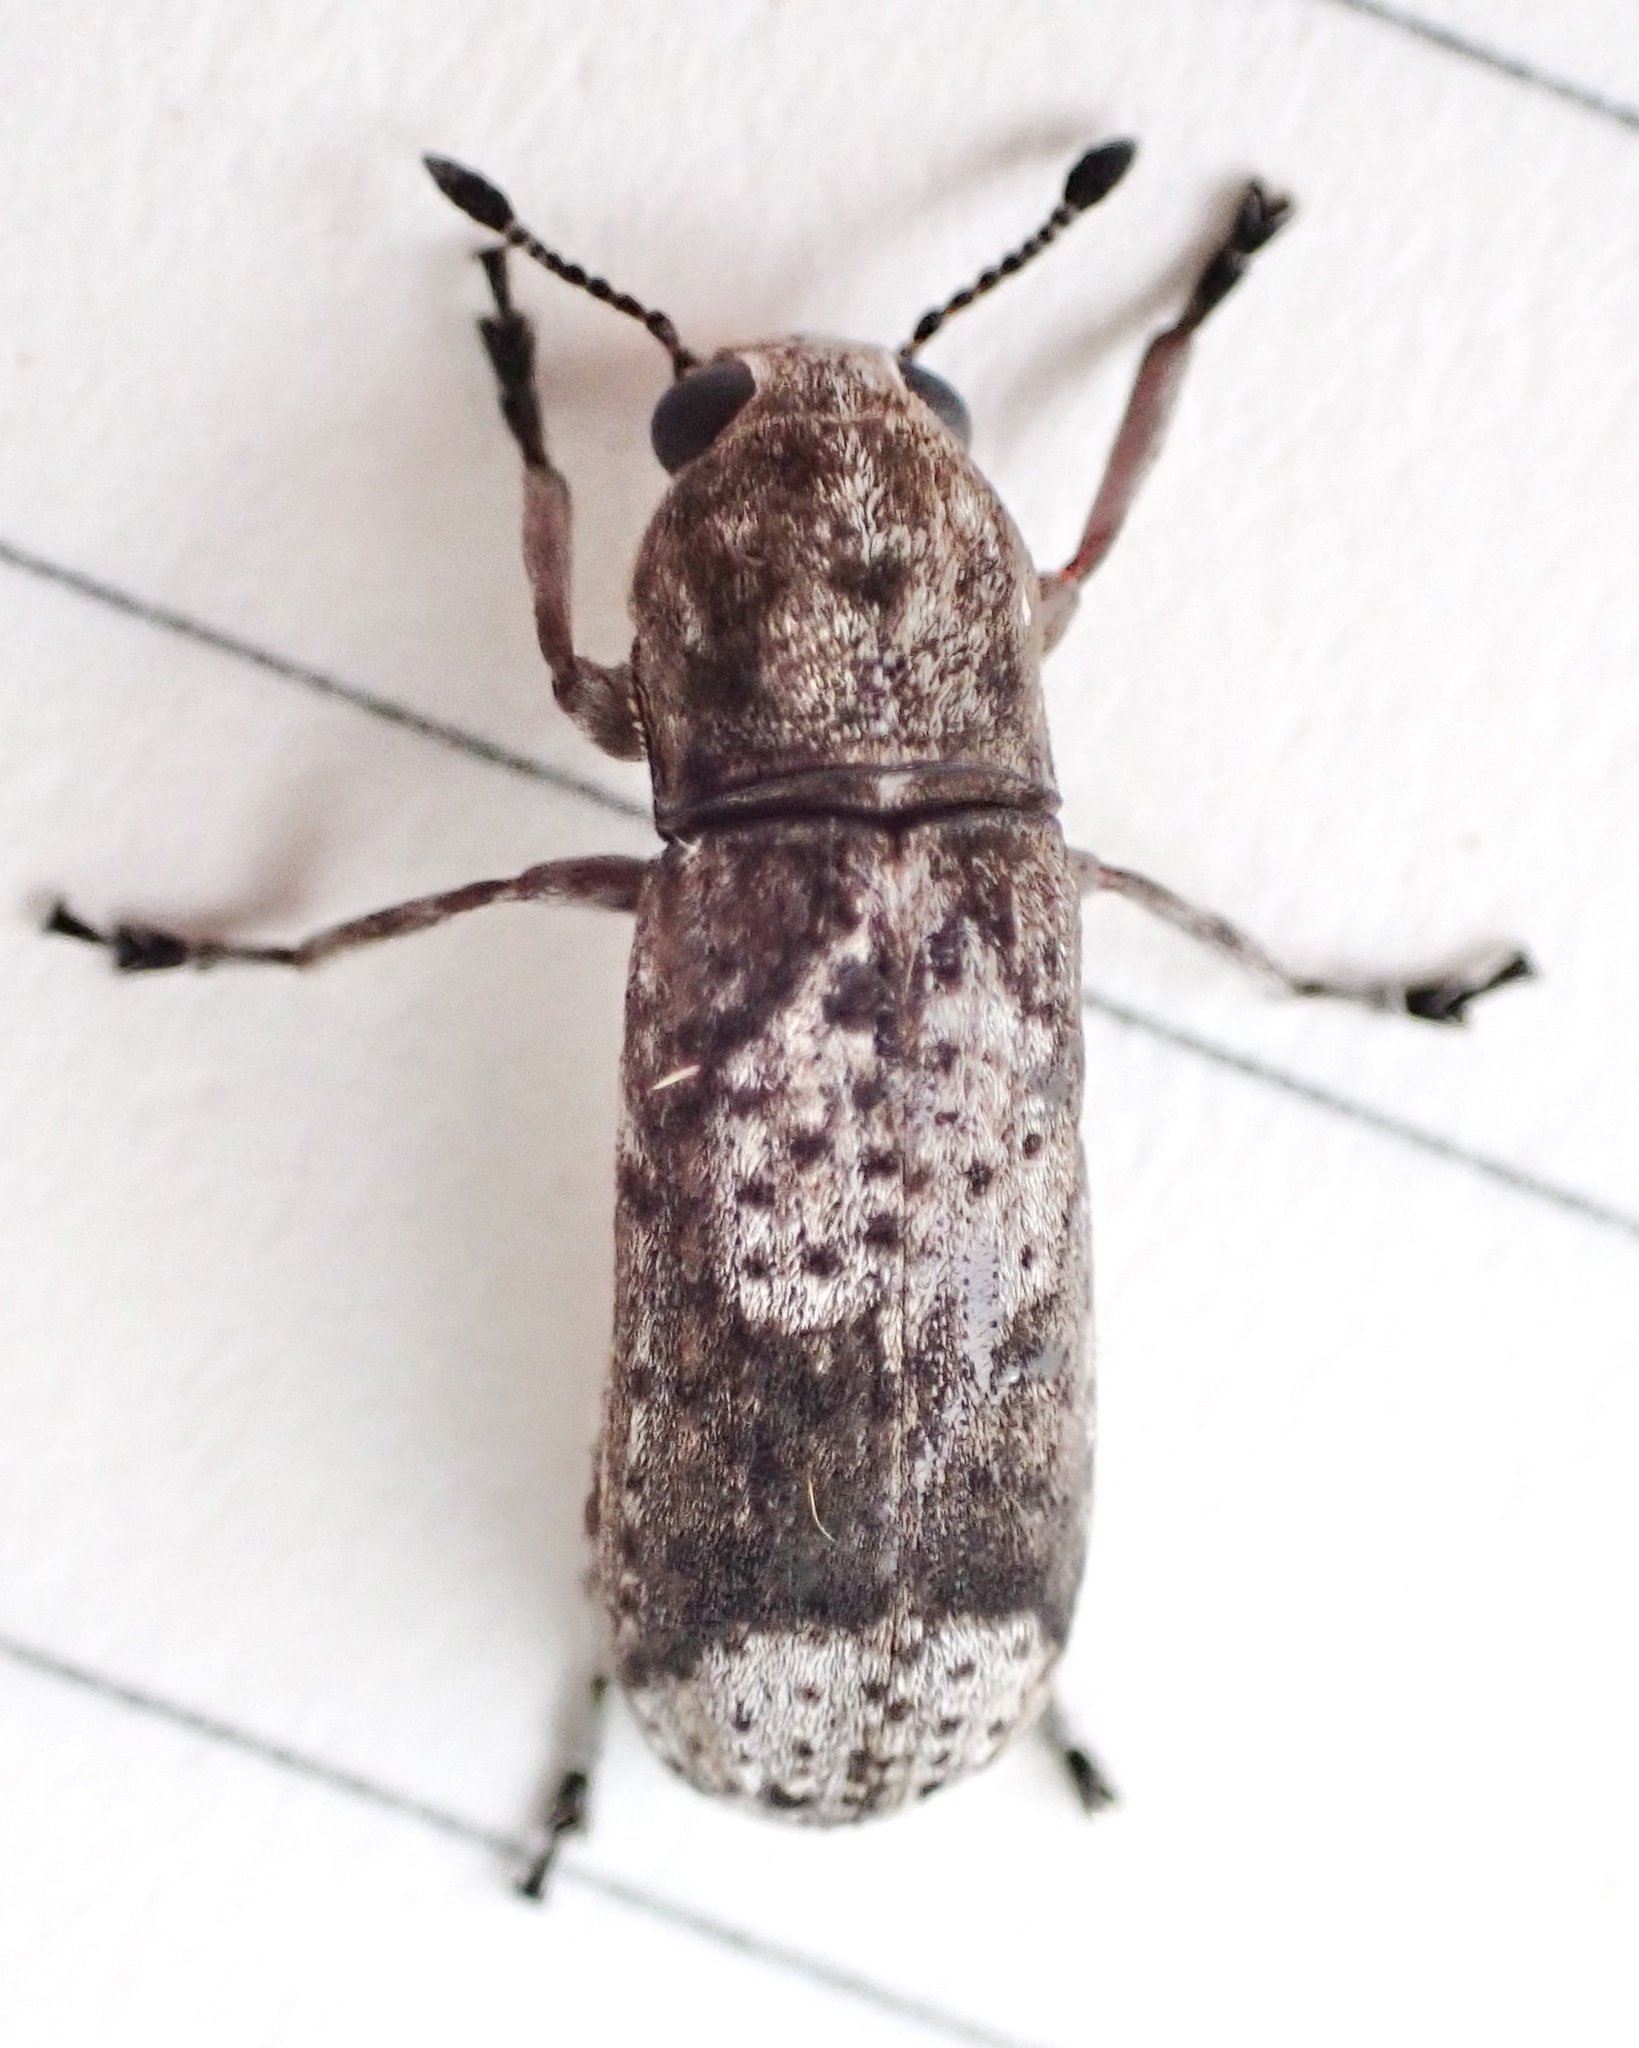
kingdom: Animalia
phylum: Arthropoda
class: Insecta
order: Coleoptera
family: Anthribidae
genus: Ozotomerus
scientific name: Ozotomerus japonicus
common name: Old world fungus weevil
